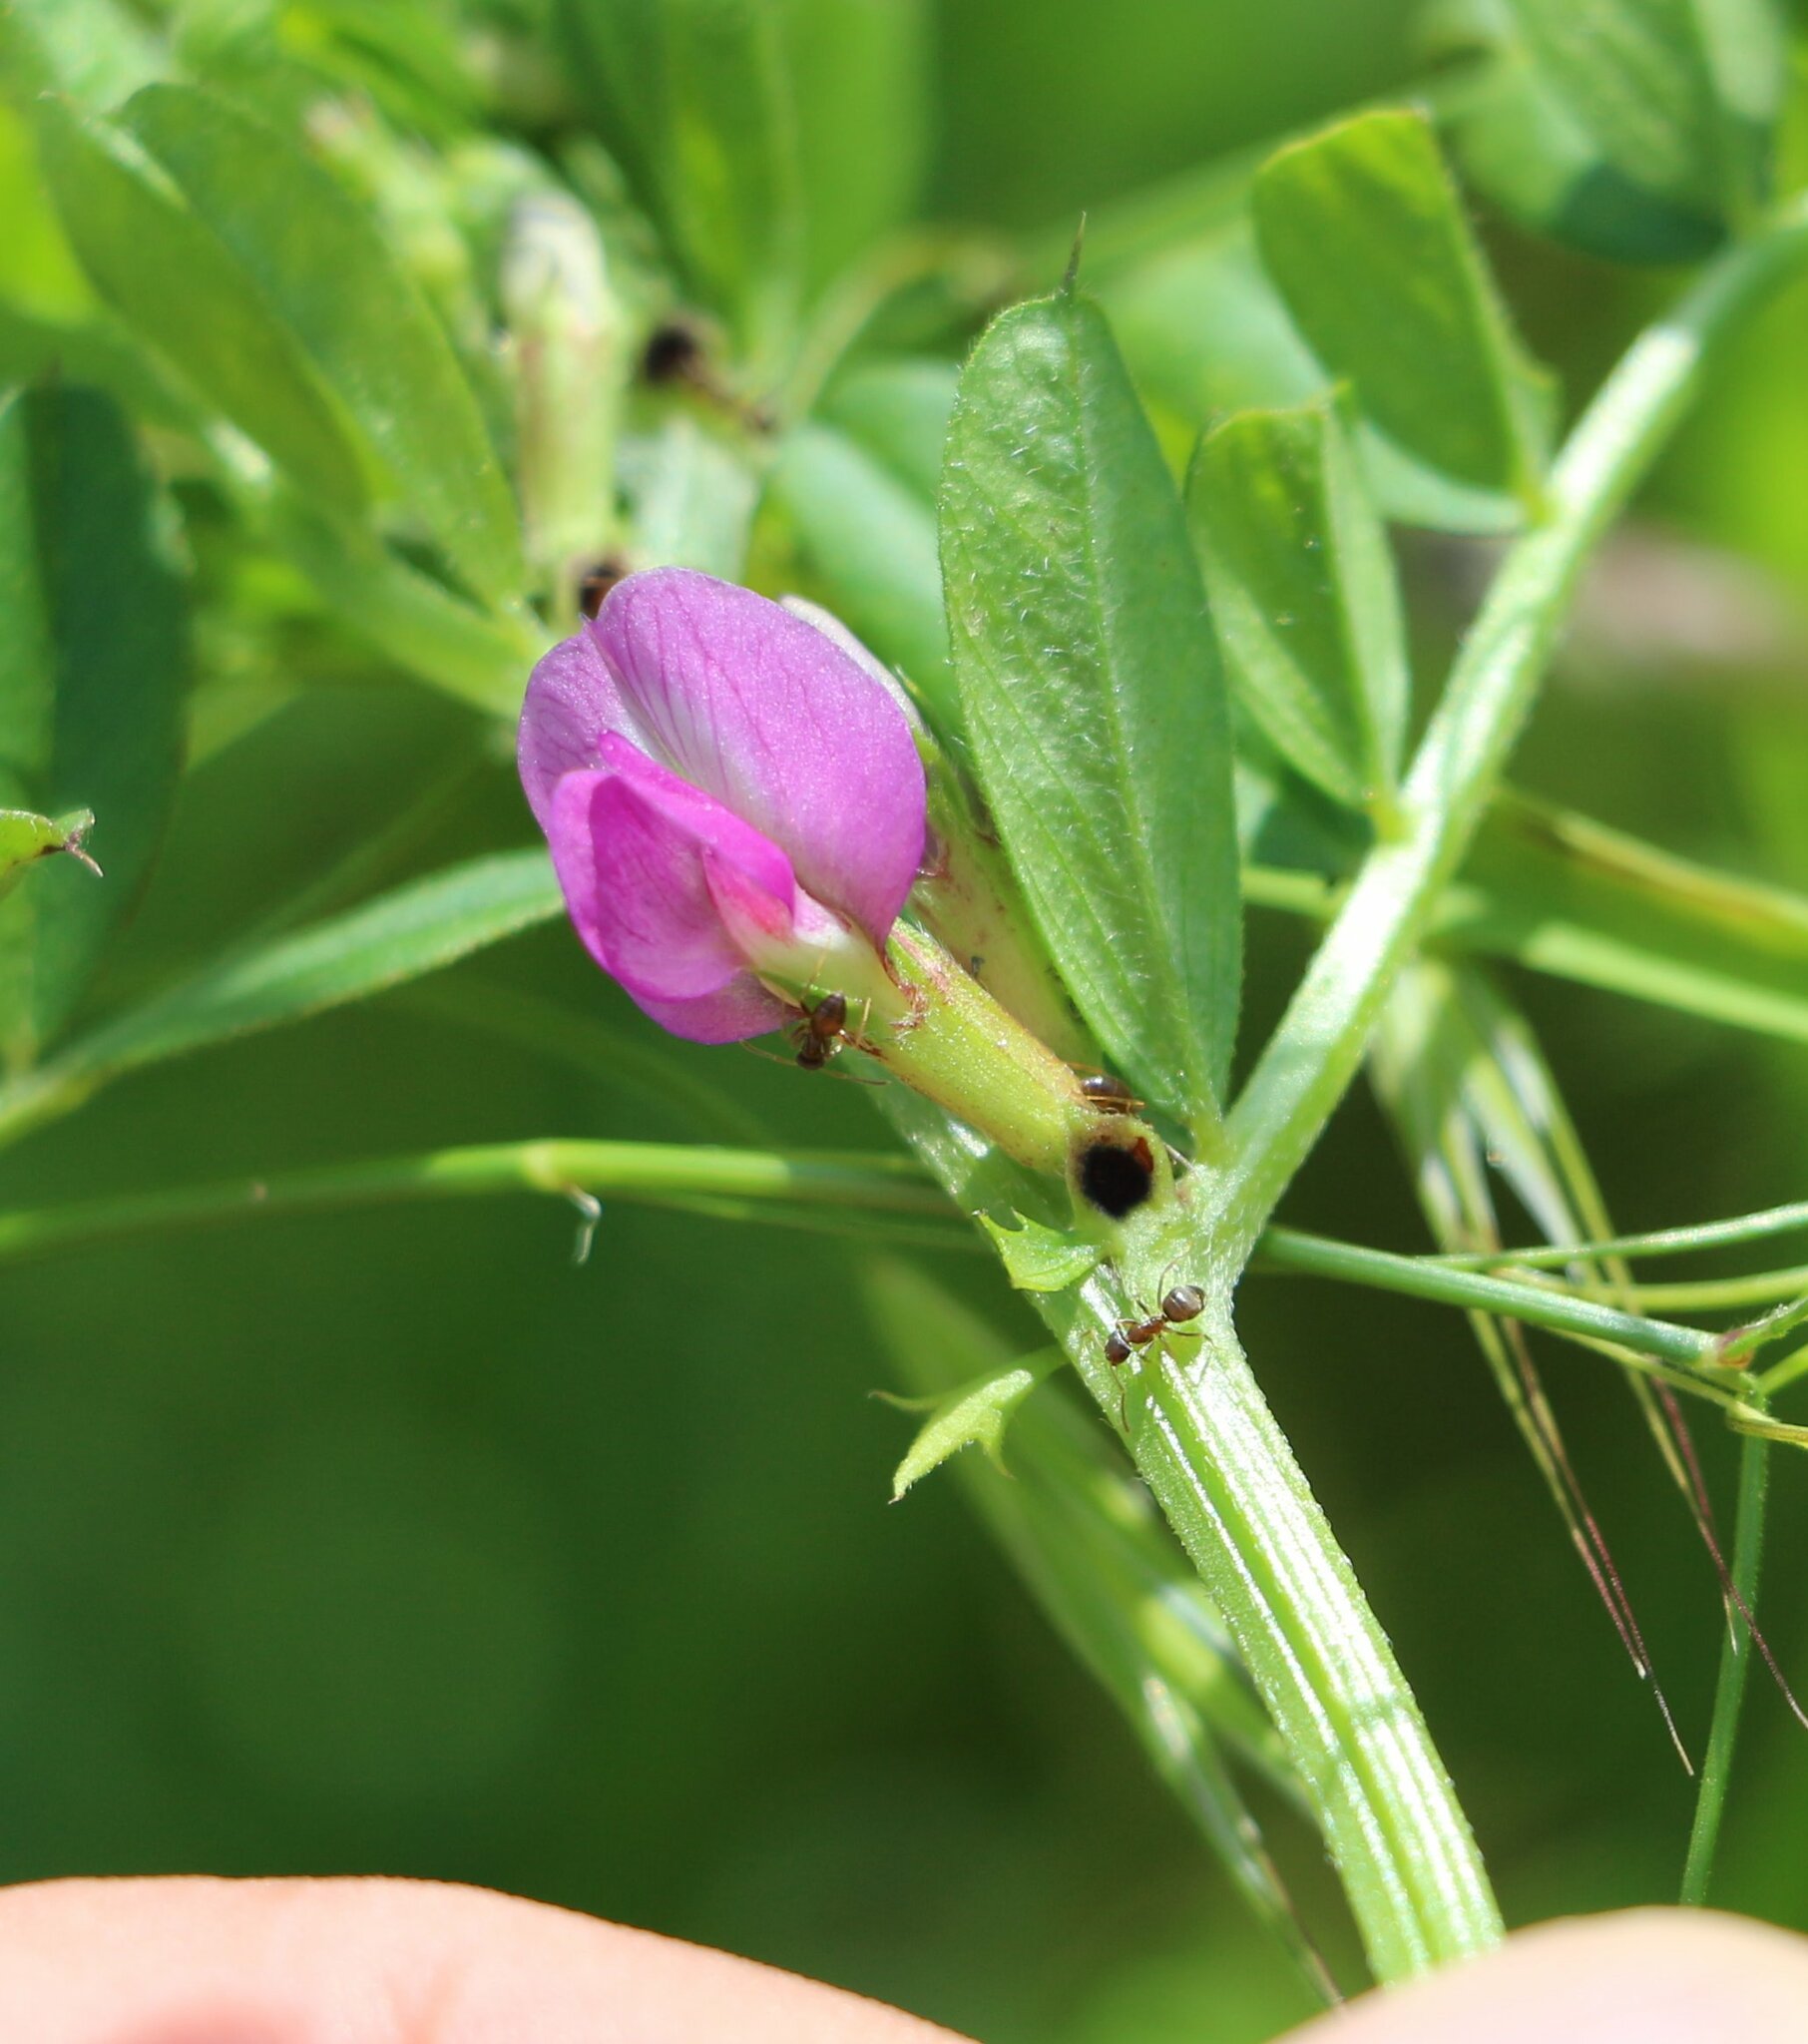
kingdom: Plantae
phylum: Tracheophyta
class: Magnoliopsida
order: Fabales
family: Fabaceae
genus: Vicia
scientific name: Vicia sativa
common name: Garden vetch
